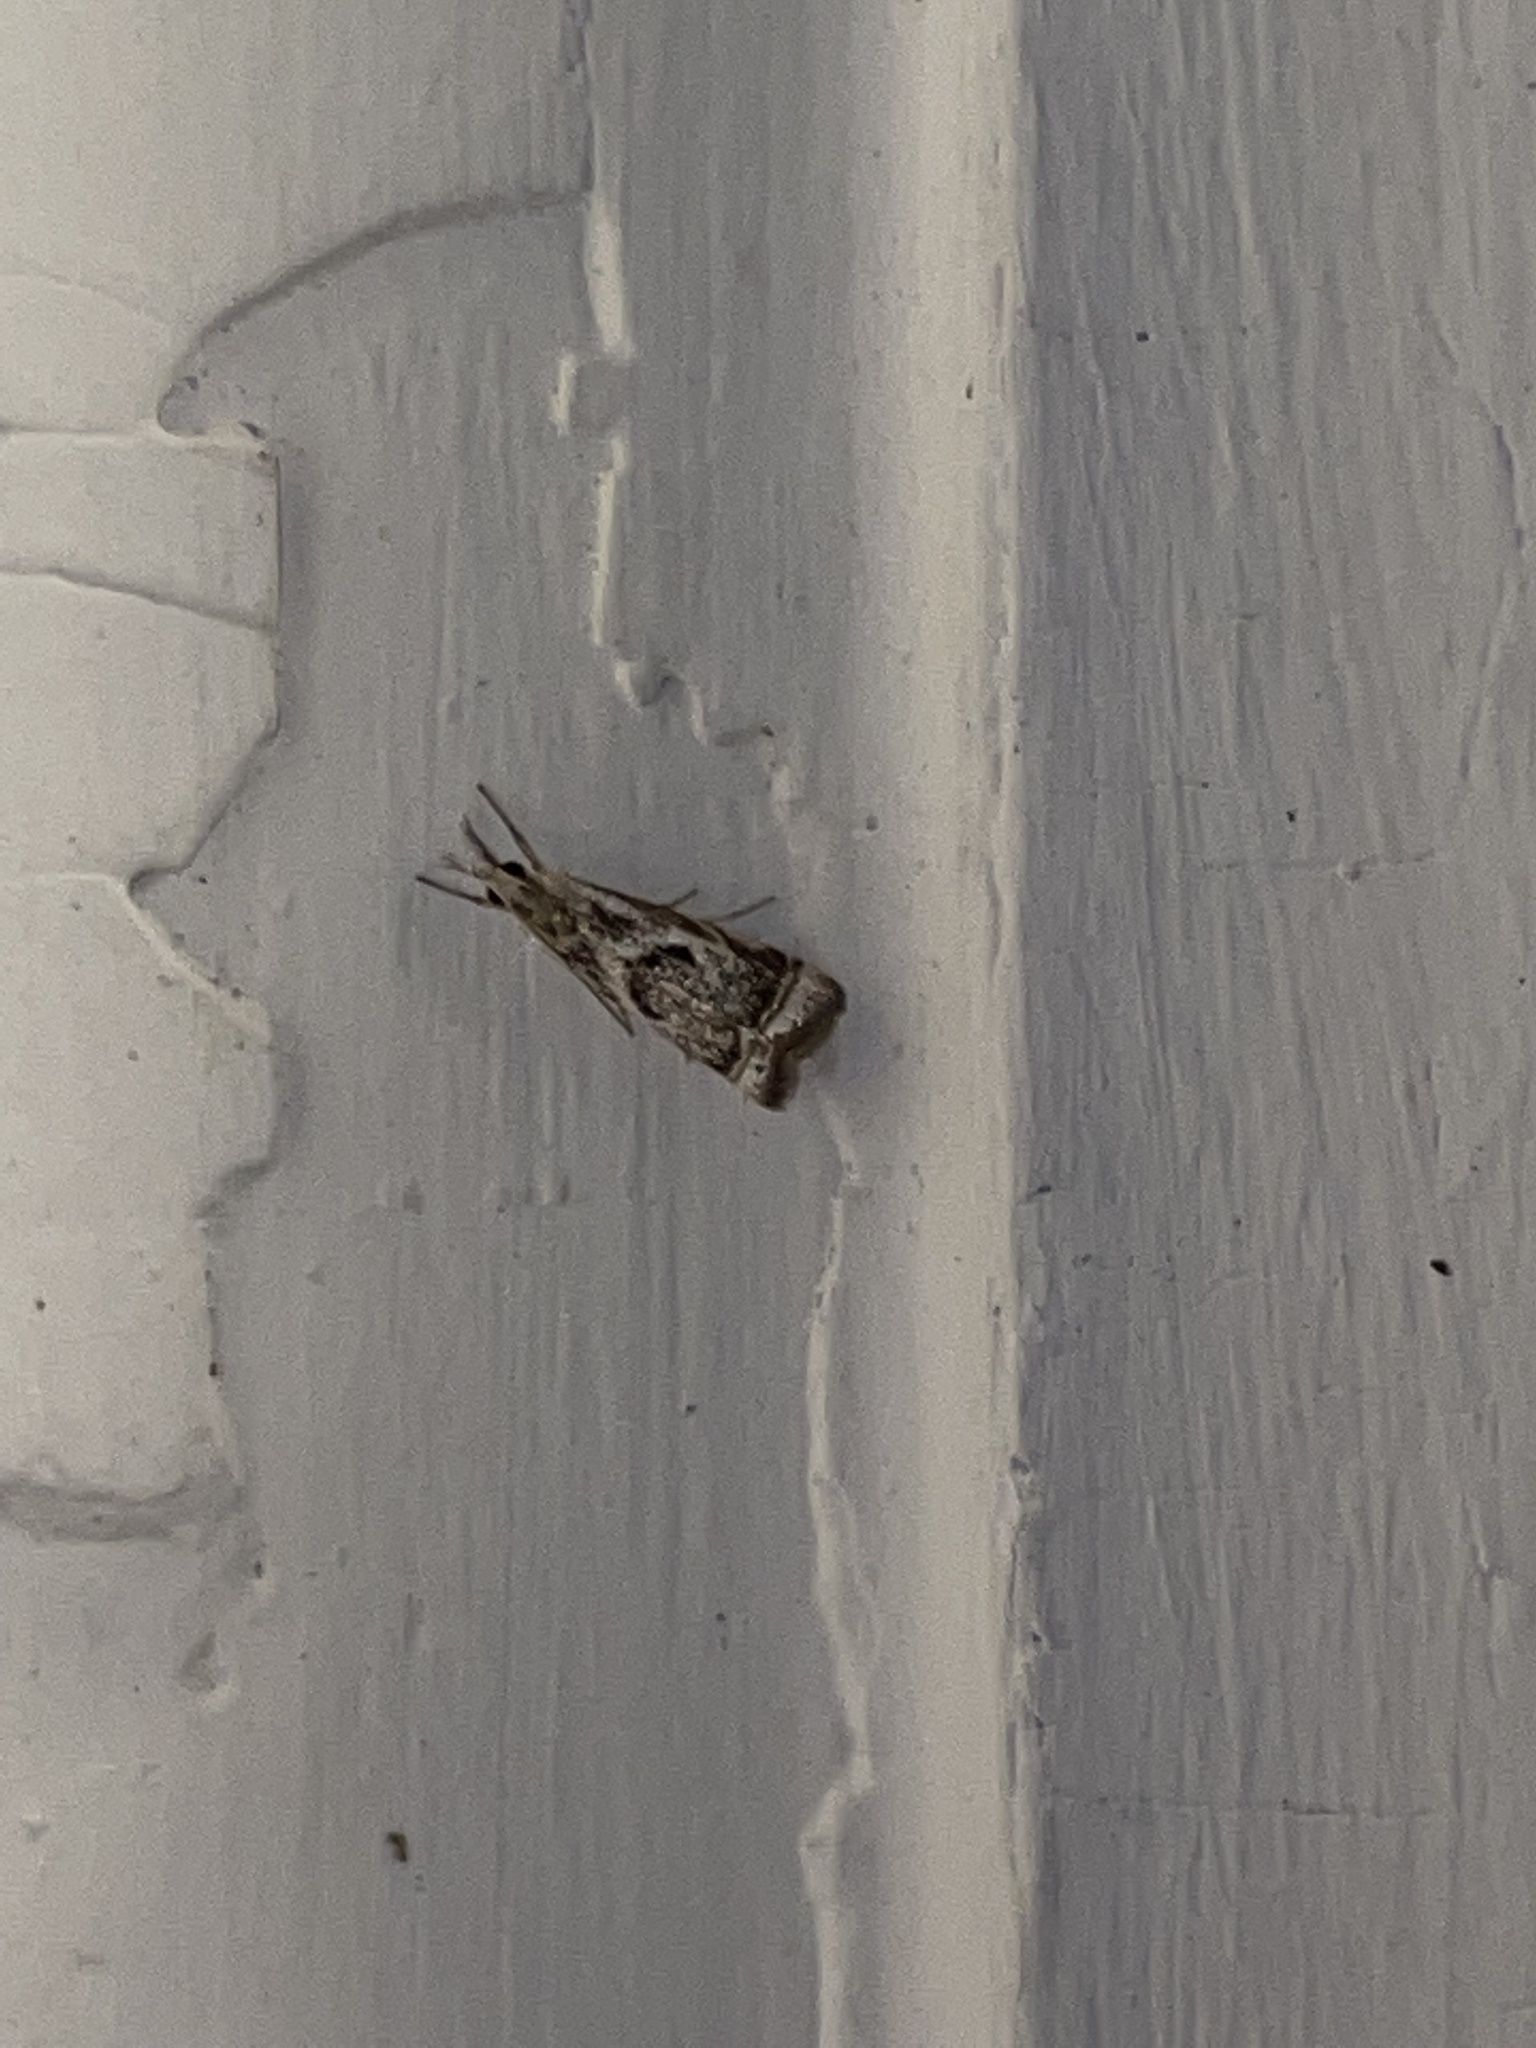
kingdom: Animalia
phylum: Arthropoda
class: Insecta
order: Lepidoptera
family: Crambidae
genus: Microcrambus
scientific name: Microcrambus elegans
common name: Elegant grass-veneer
